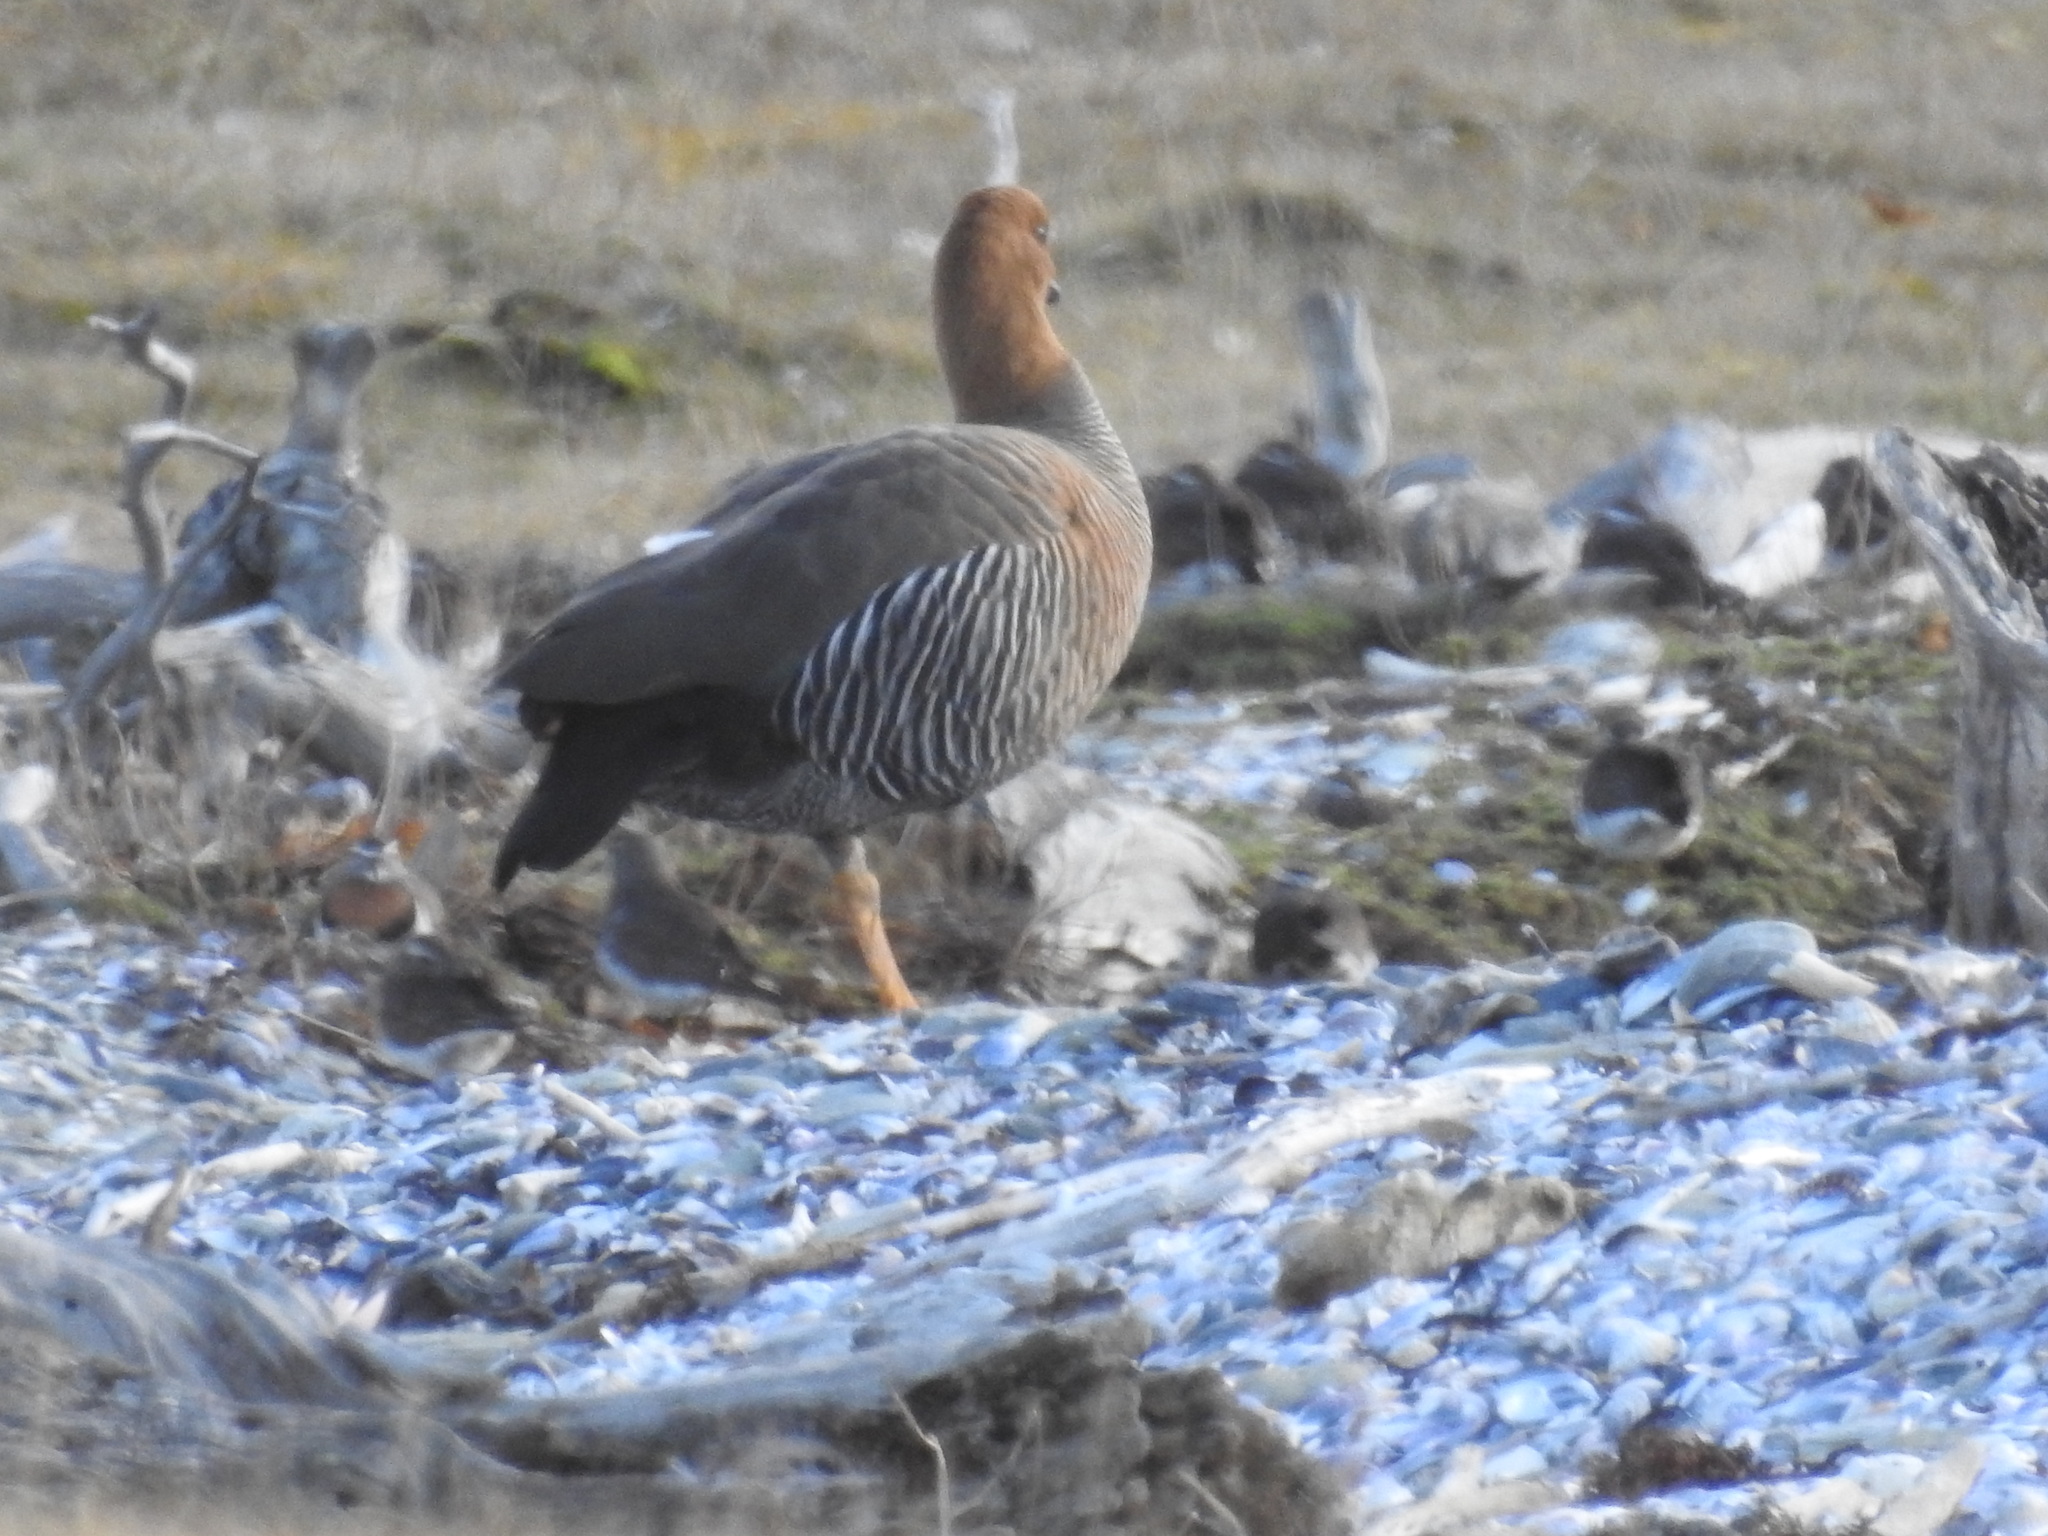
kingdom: Animalia
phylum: Chordata
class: Aves
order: Anseriformes
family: Anatidae
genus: Chloephaga
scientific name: Chloephaga picta
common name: Upland goose
